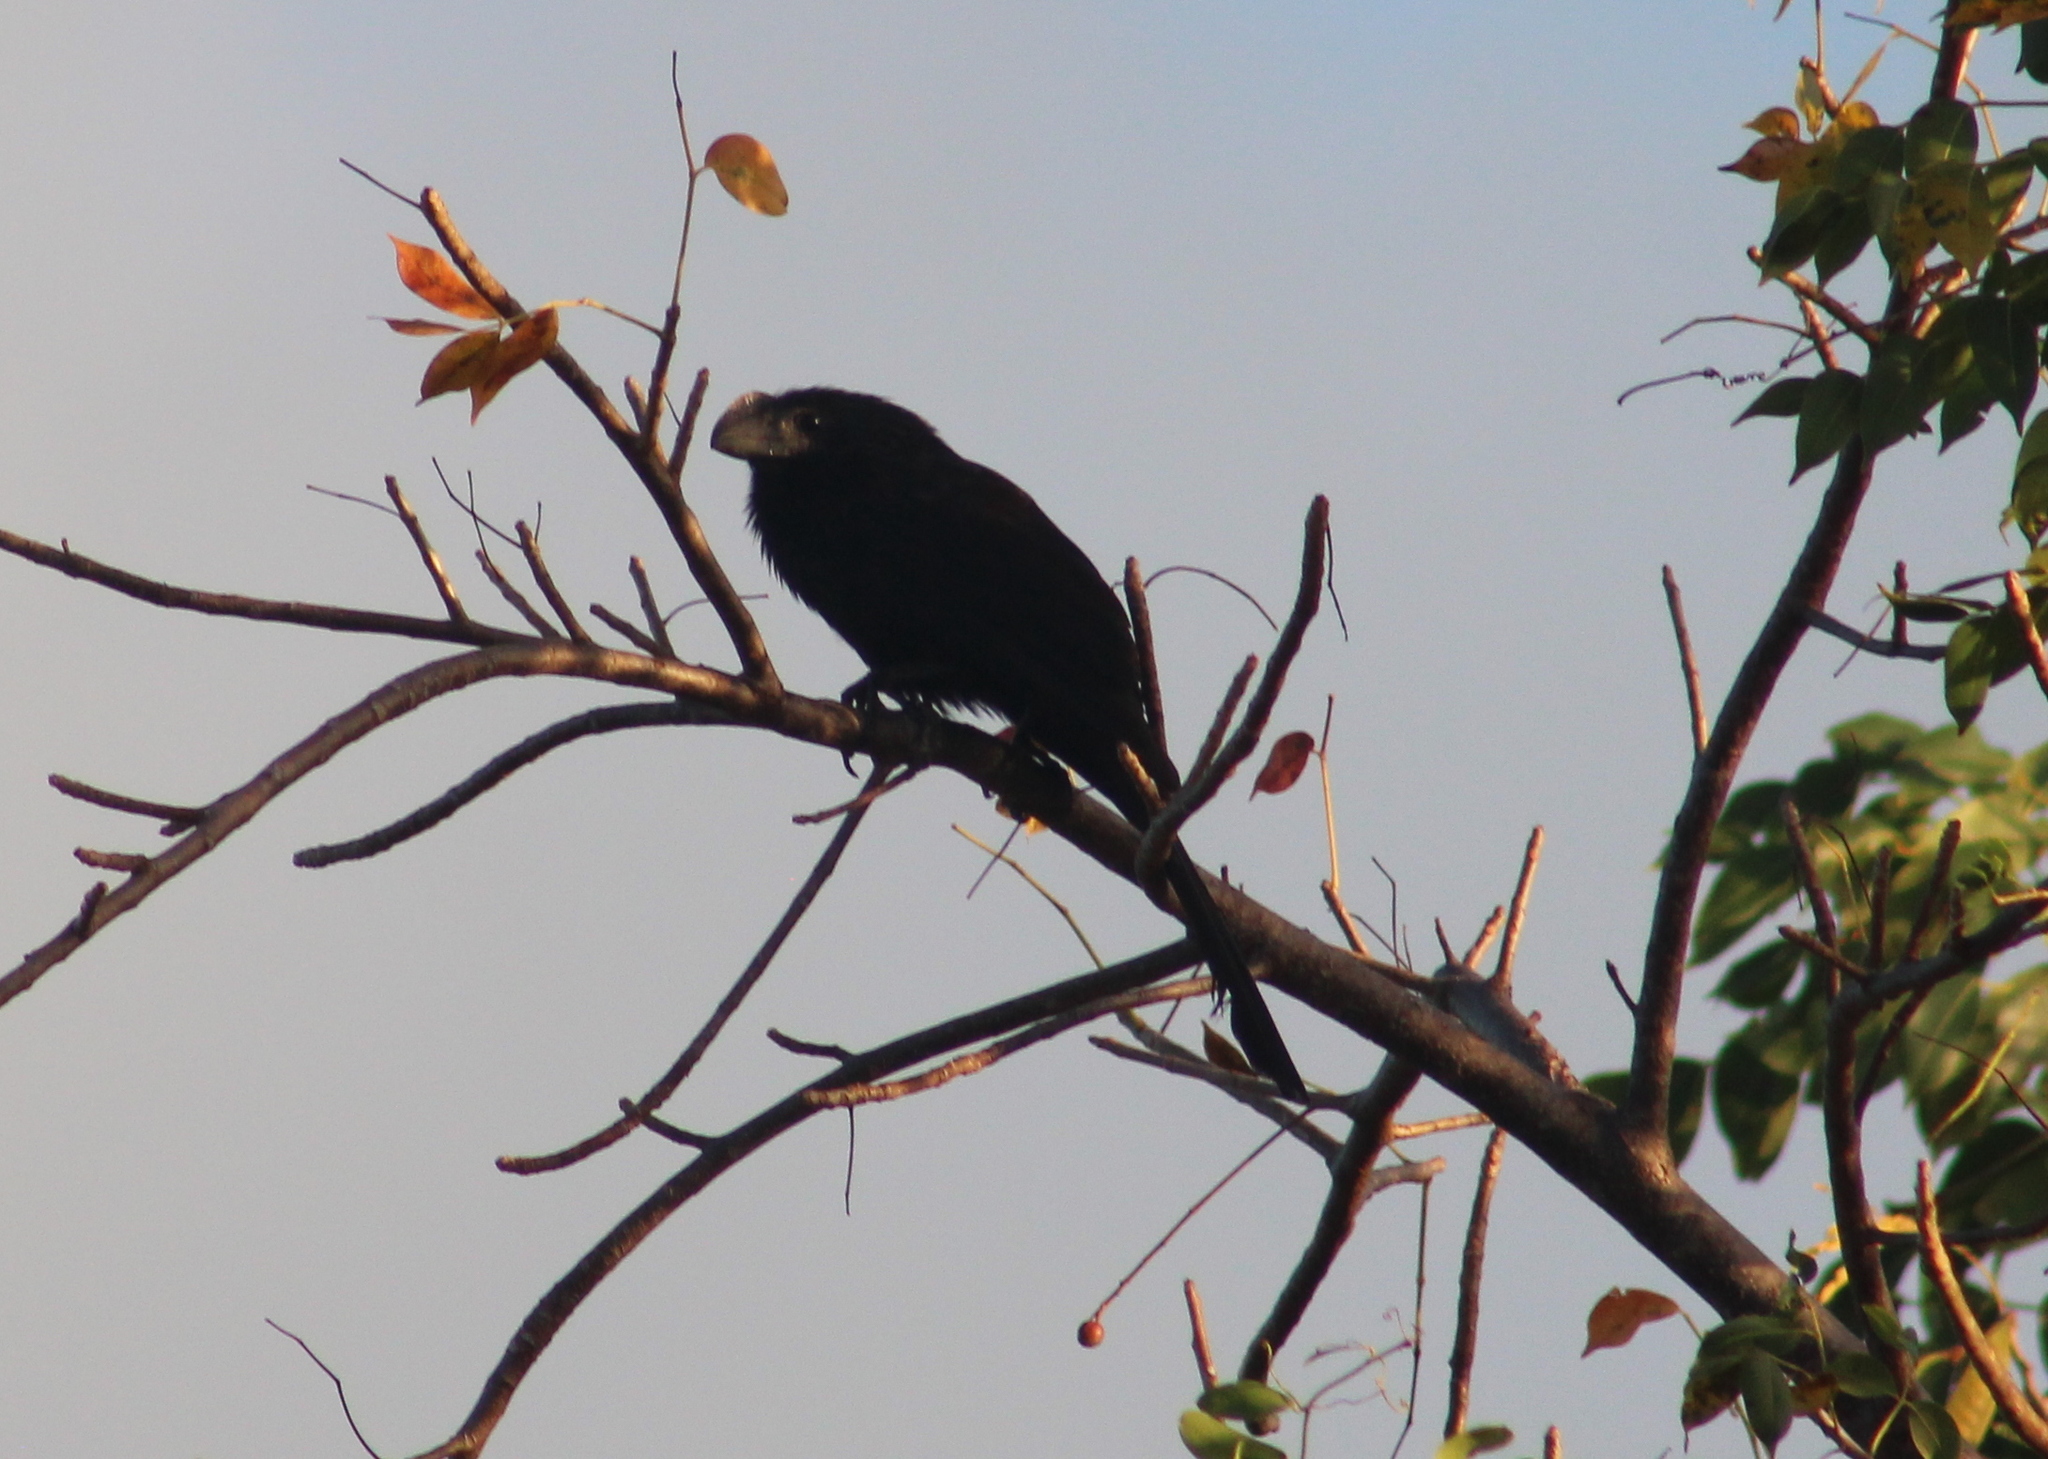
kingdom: Animalia
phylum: Chordata
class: Aves
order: Cuculiformes
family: Cuculidae
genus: Crotophaga
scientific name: Crotophaga ani
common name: Smooth-billed ani
